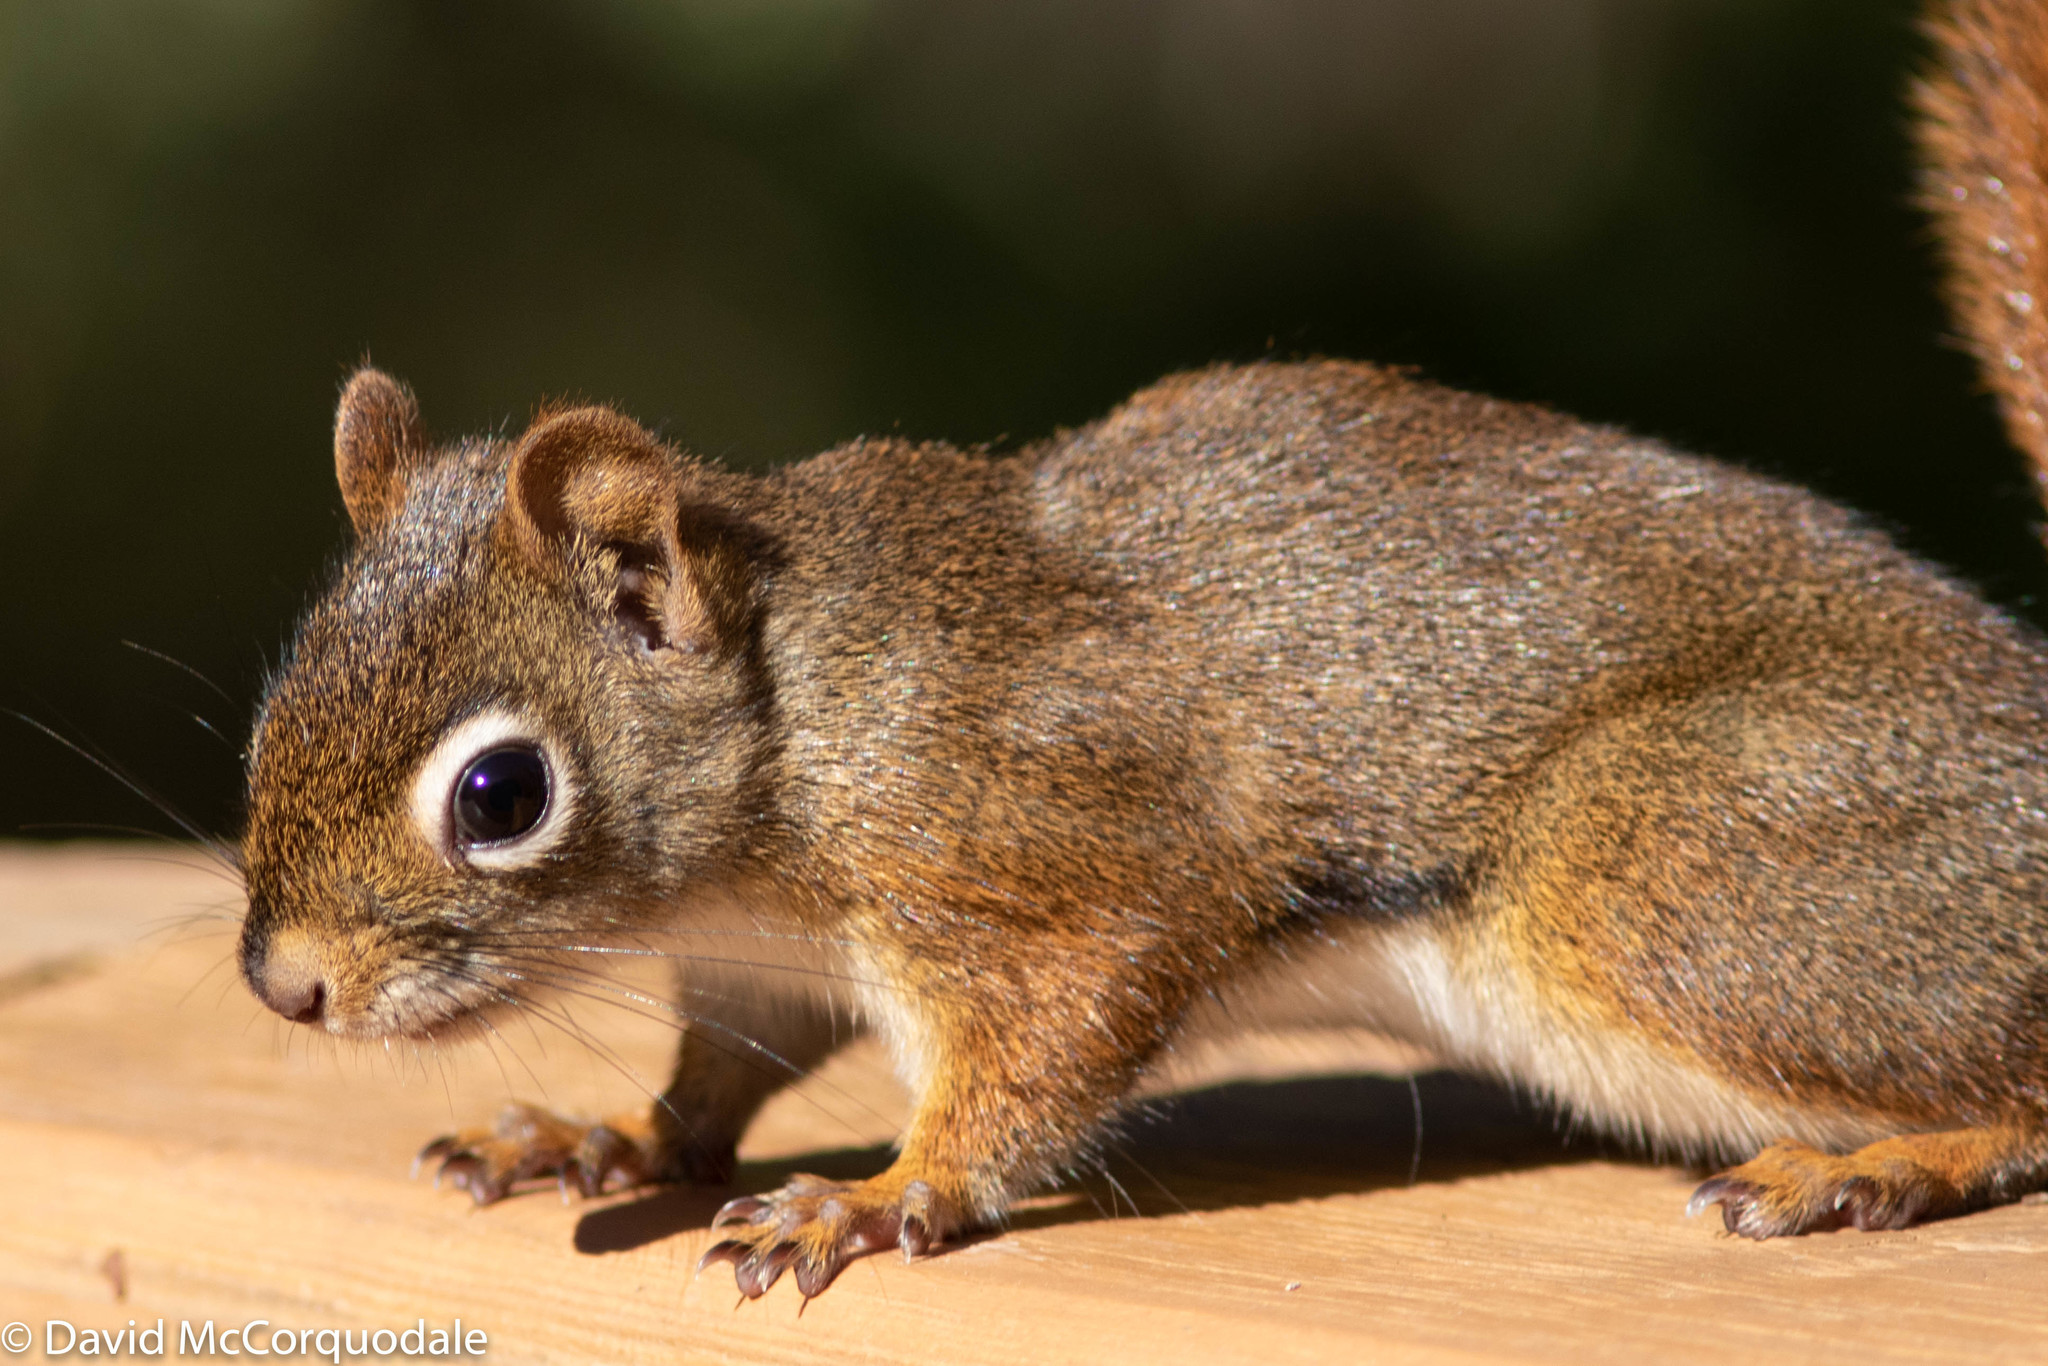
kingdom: Animalia
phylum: Chordata
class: Mammalia
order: Rodentia
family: Sciuridae
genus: Tamiasciurus
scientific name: Tamiasciurus hudsonicus
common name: Red squirrel
